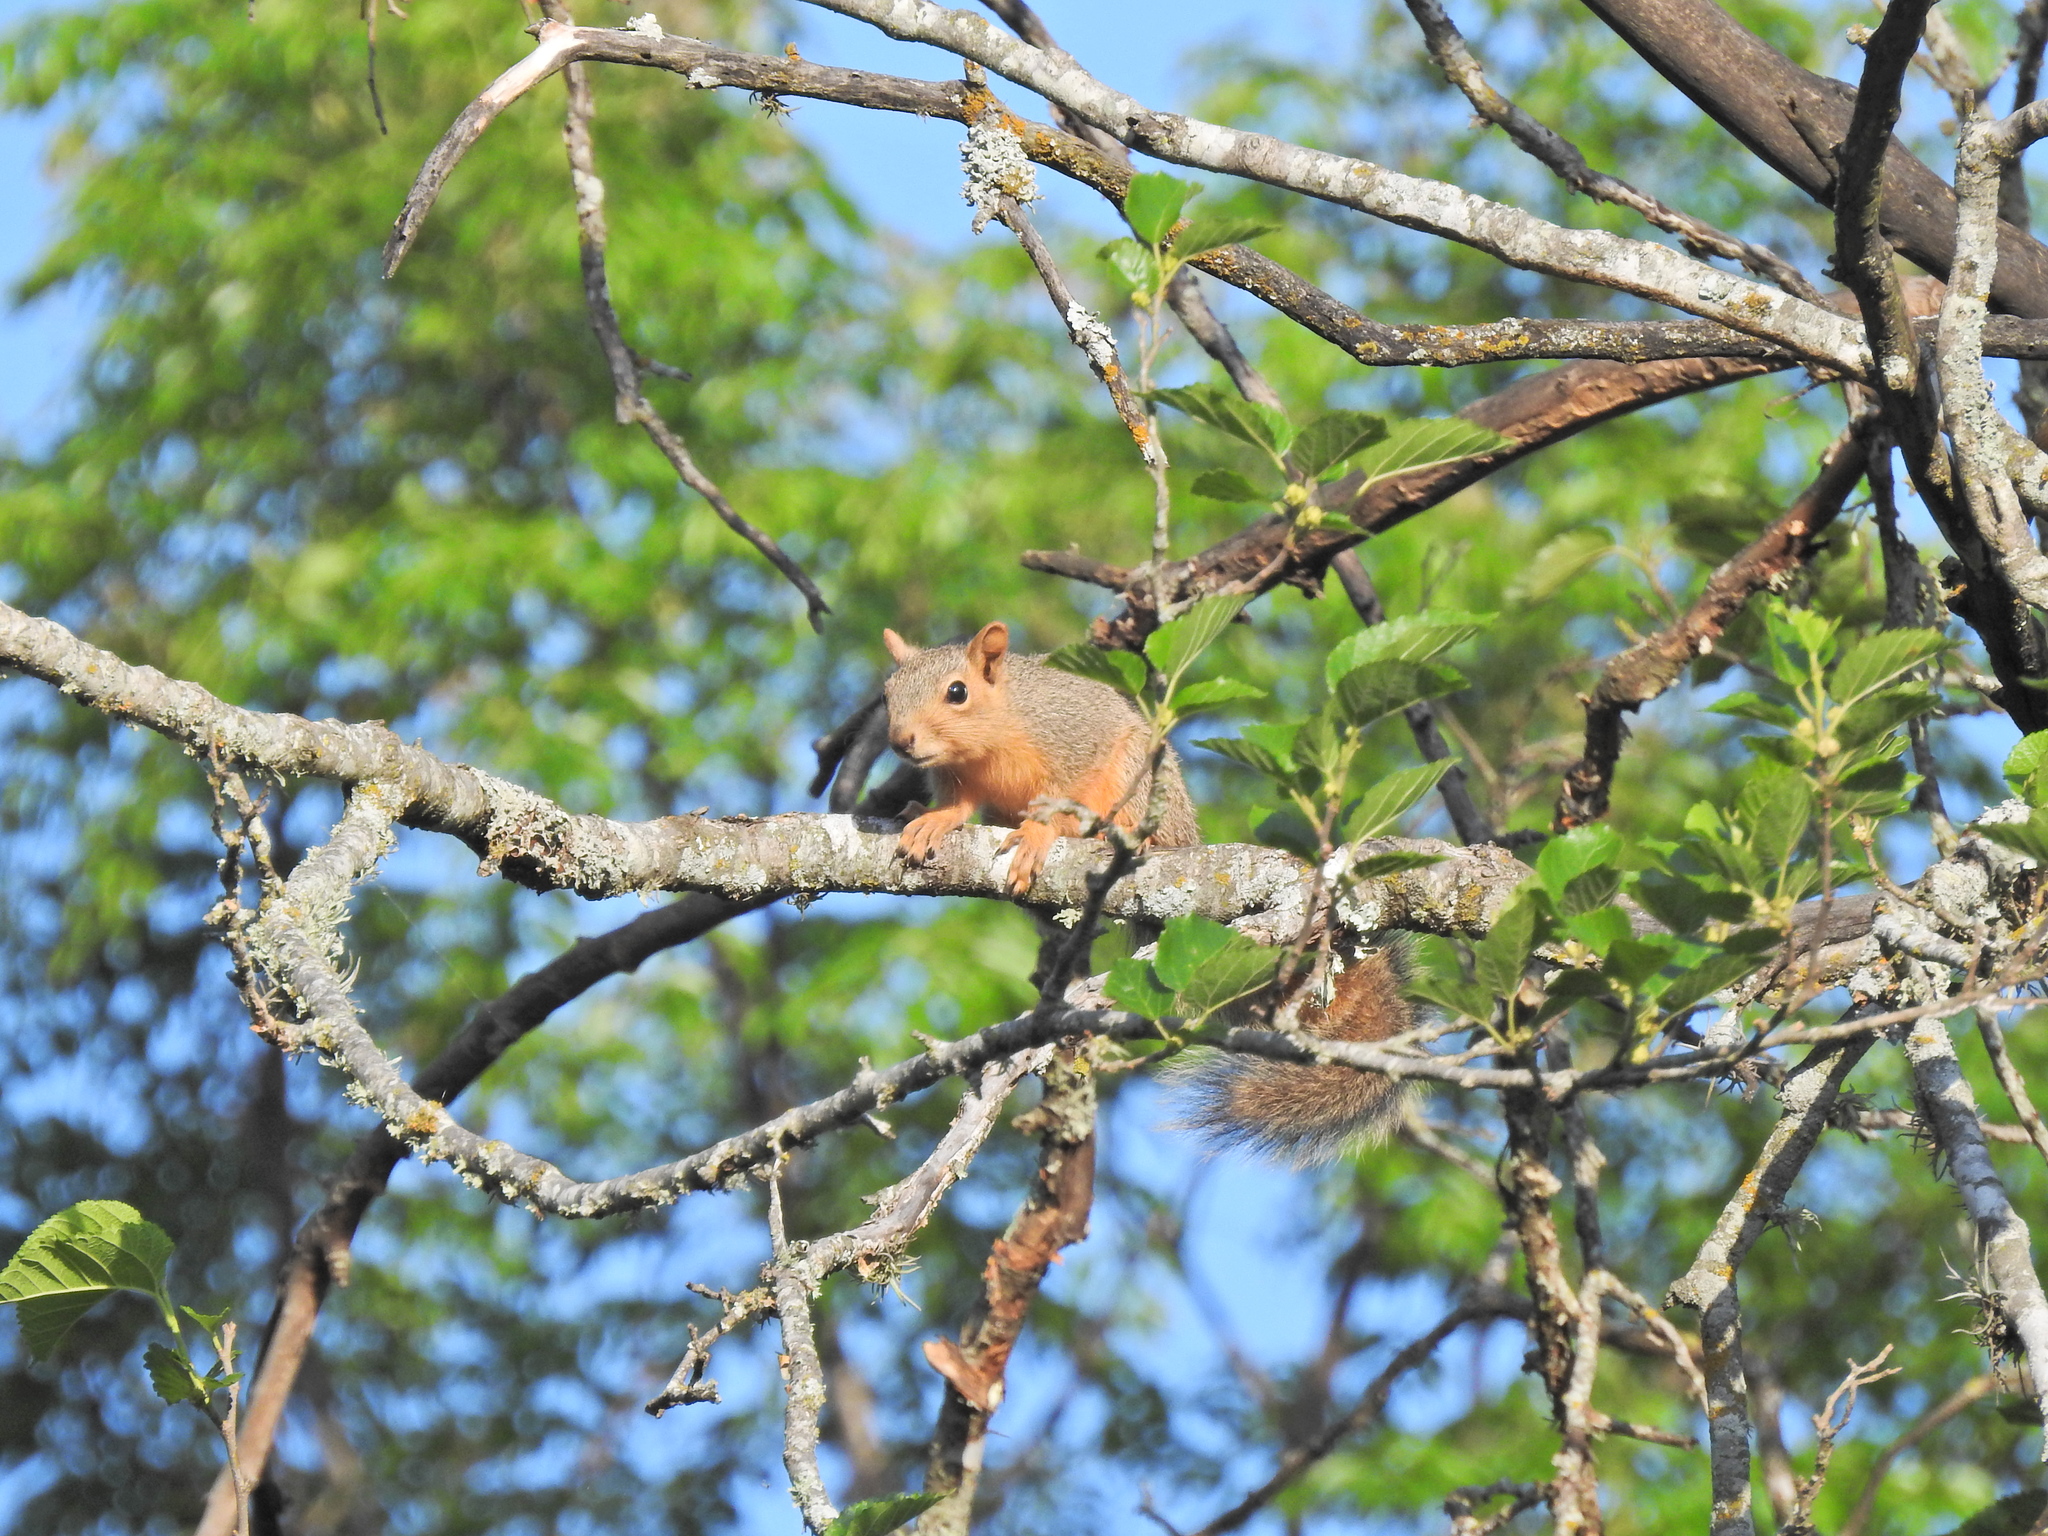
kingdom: Animalia
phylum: Chordata
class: Mammalia
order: Rodentia
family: Sciuridae
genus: Sciurus
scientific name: Sciurus niger
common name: Fox squirrel
